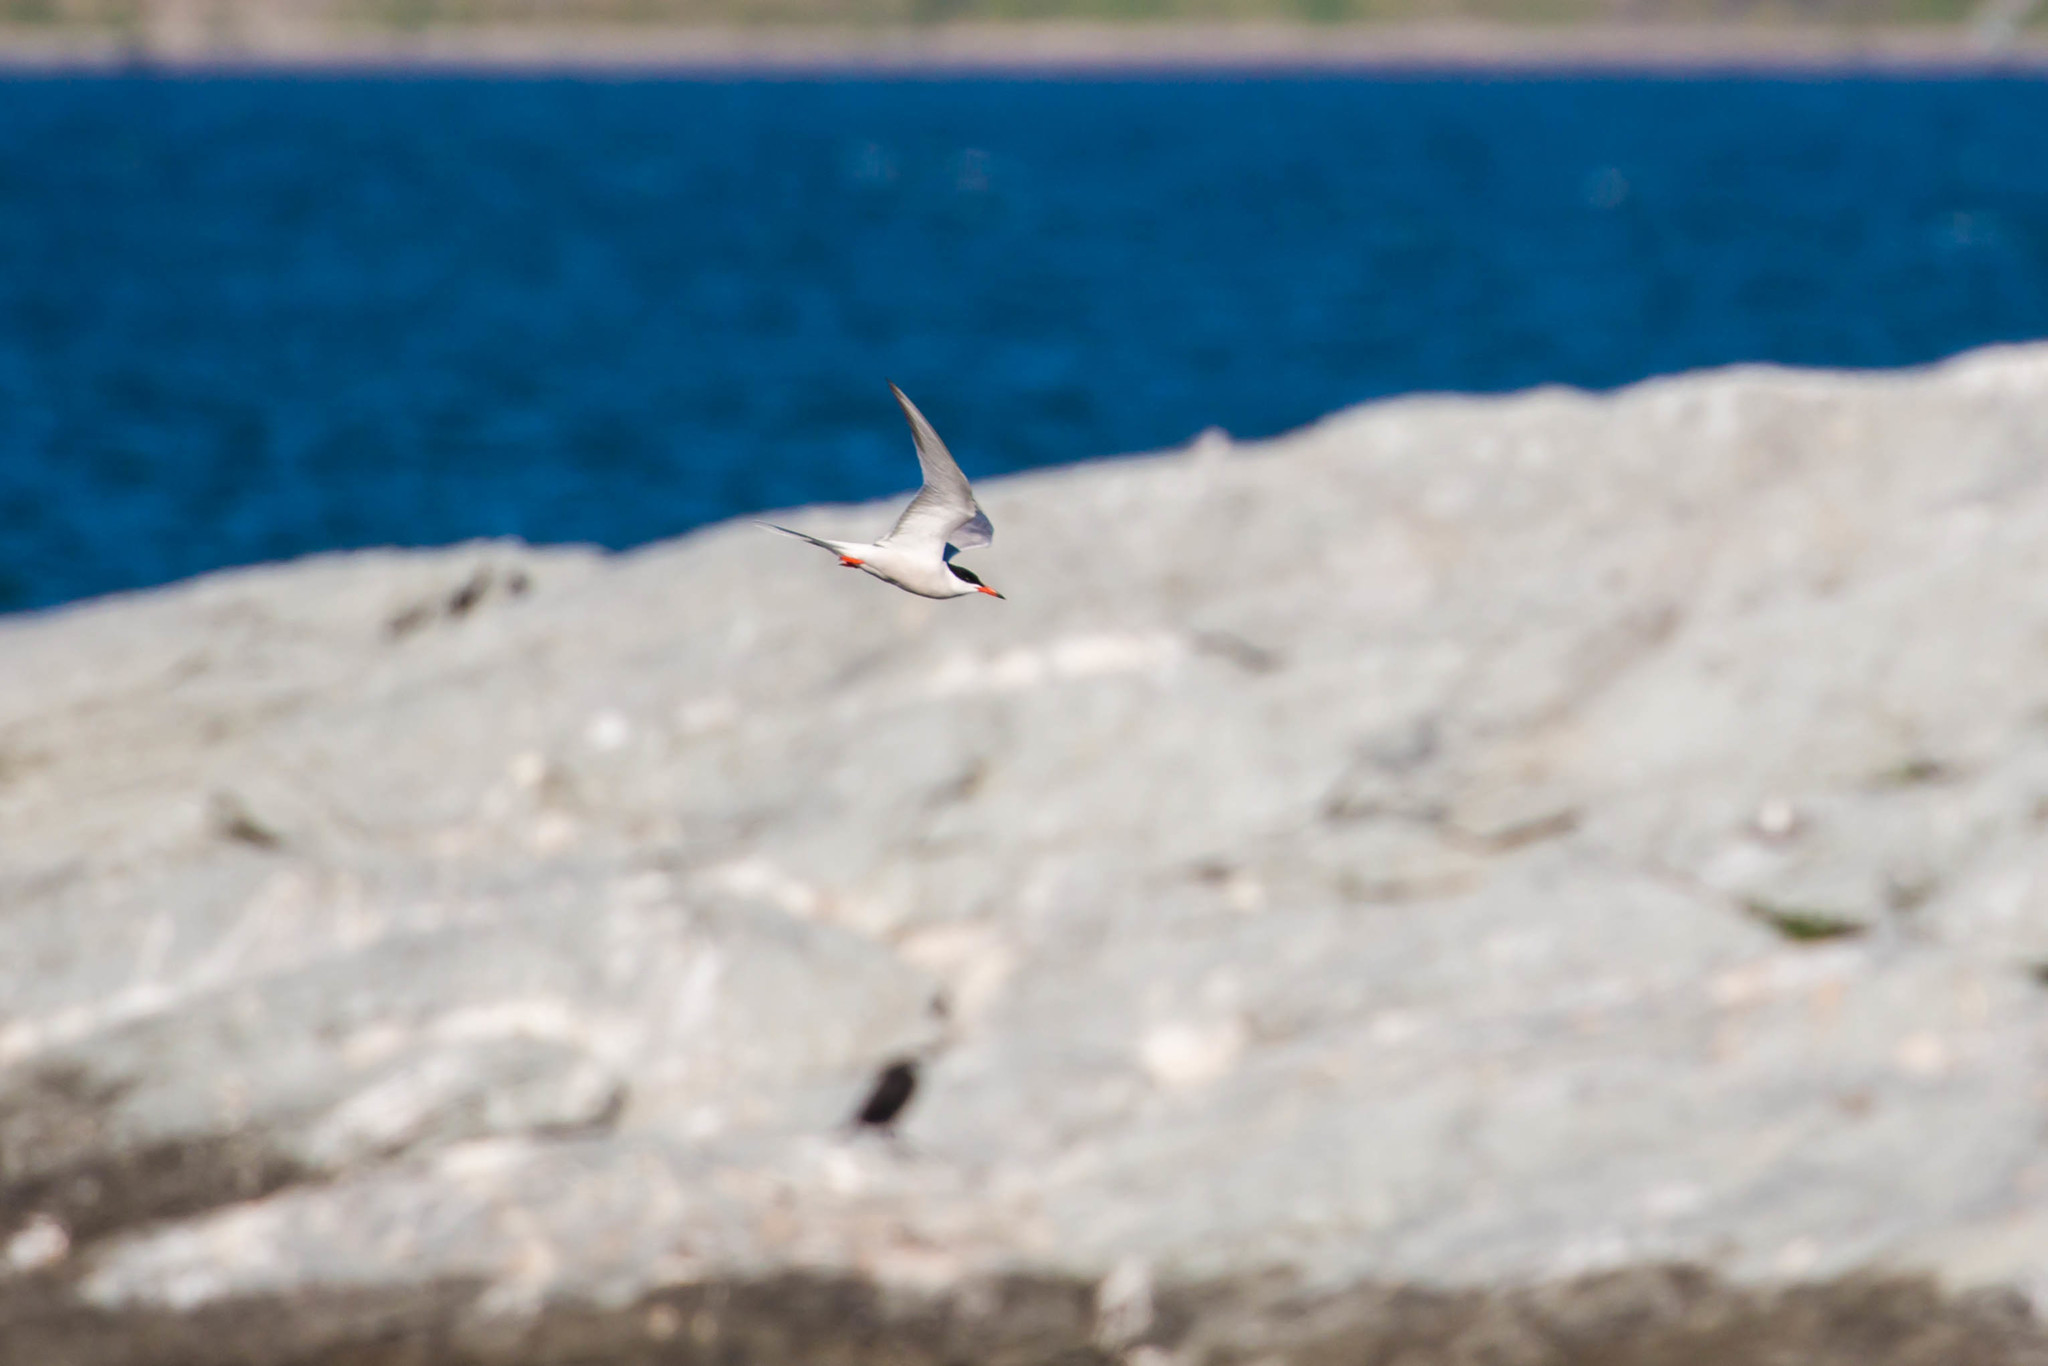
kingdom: Animalia
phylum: Chordata
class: Aves
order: Charadriiformes
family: Laridae
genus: Sterna
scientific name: Sterna hirundo
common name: Common tern
